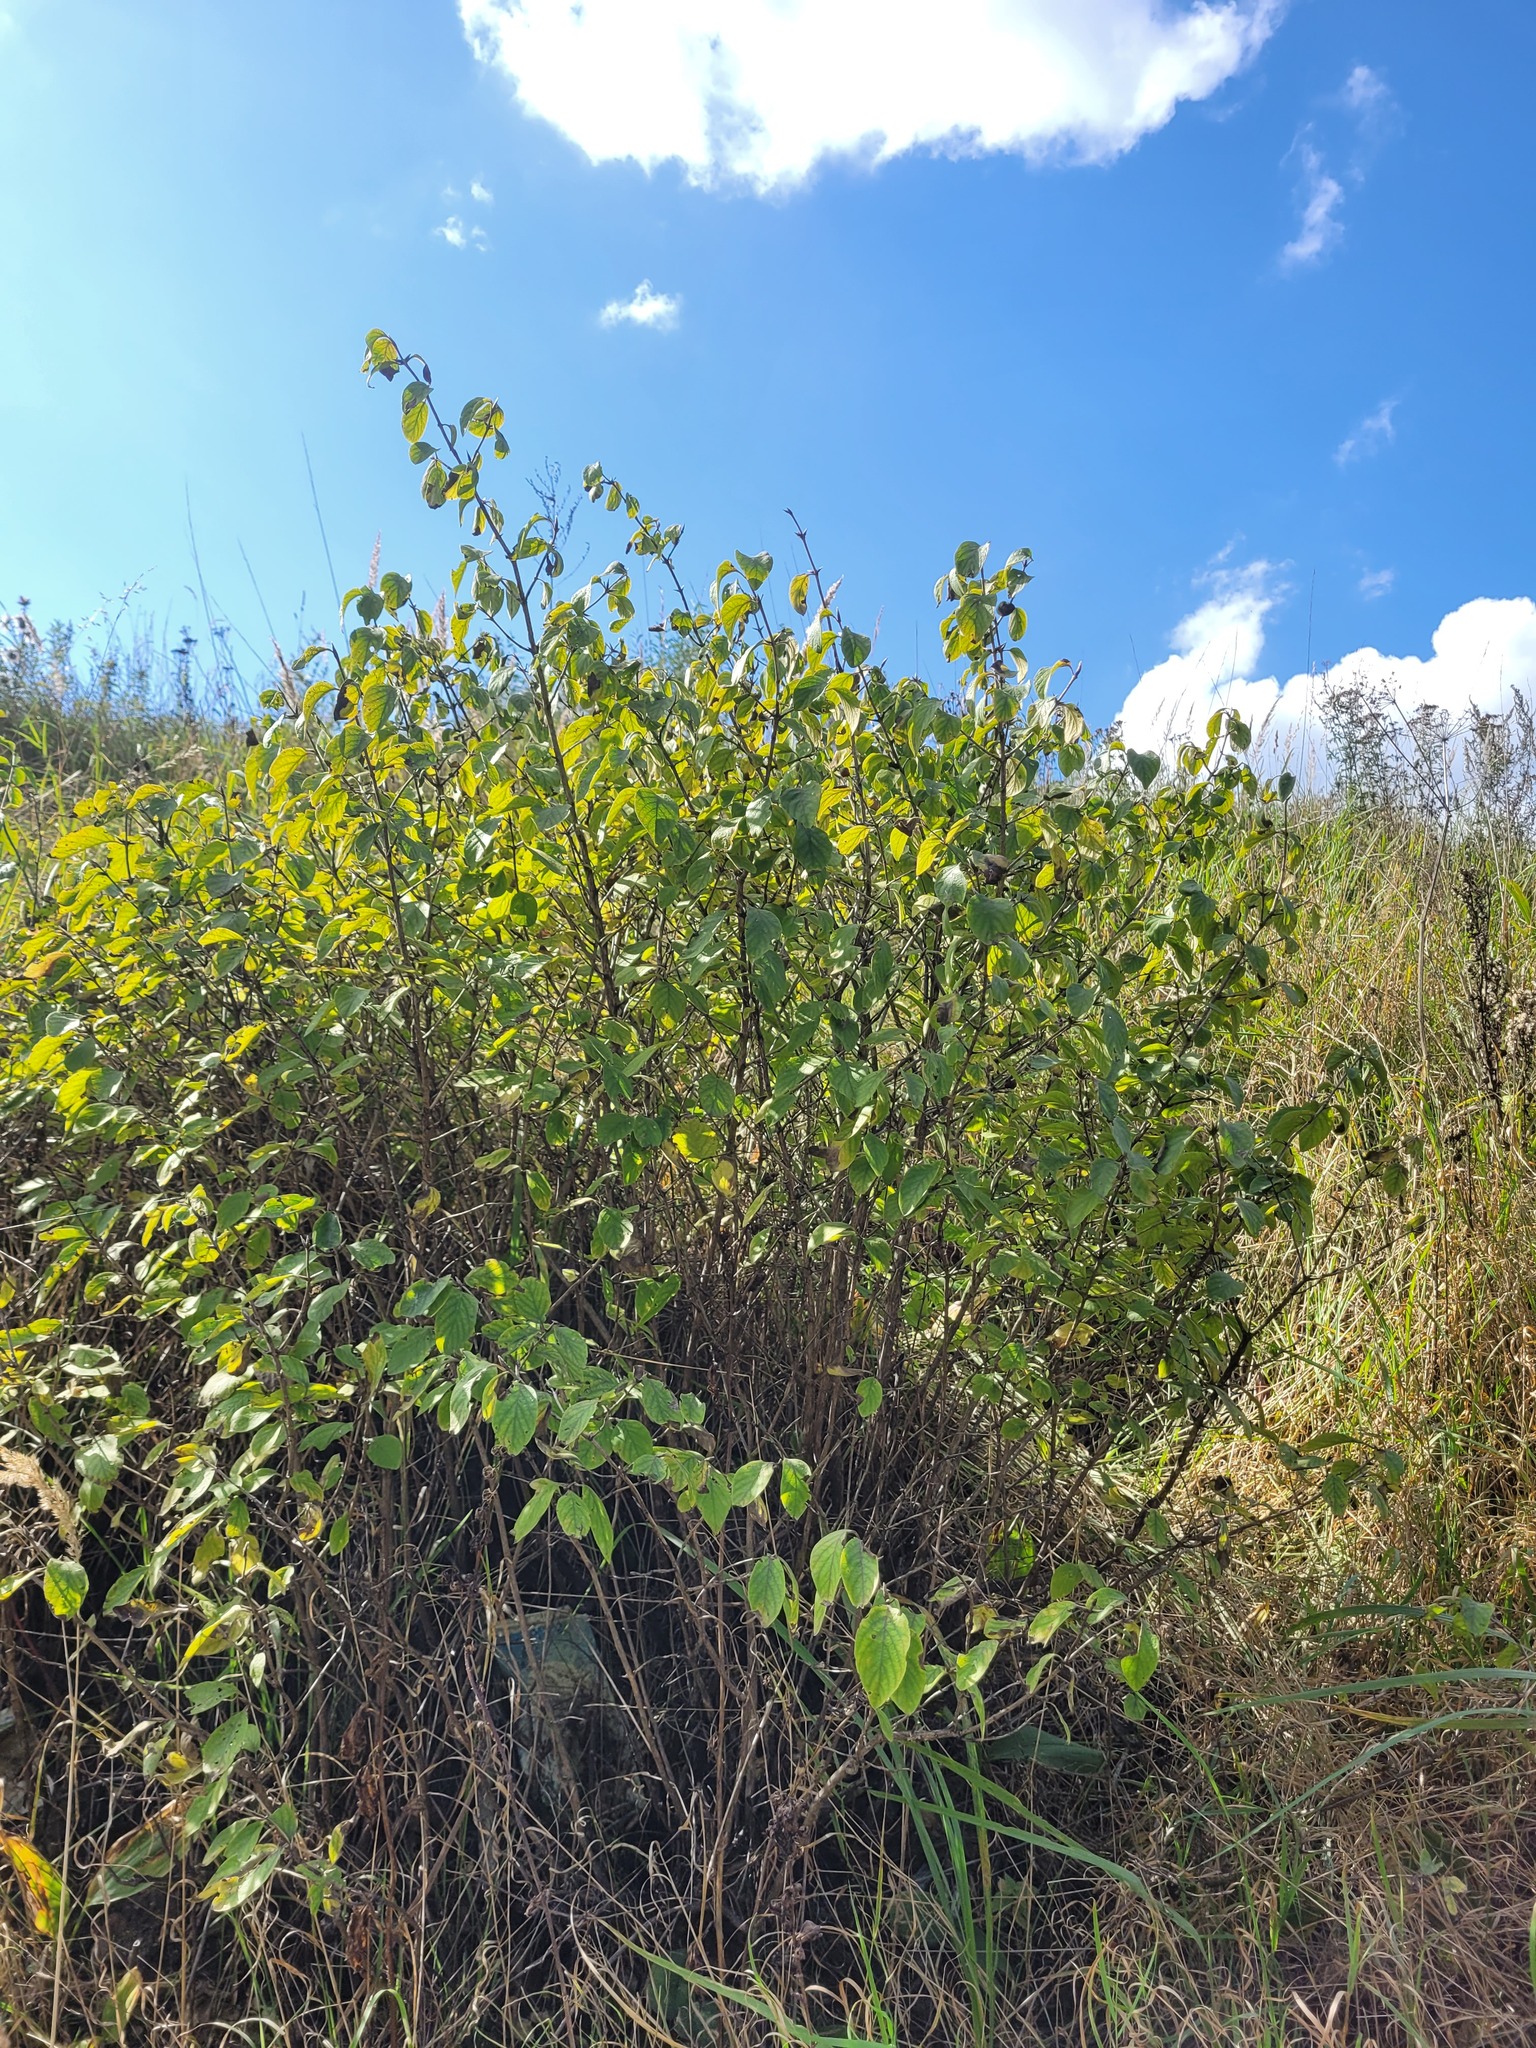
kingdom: Plantae
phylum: Tracheophyta
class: Magnoliopsida
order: Dipsacales
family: Caprifoliaceae
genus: Lonicera
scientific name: Lonicera xylosteum
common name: Fly honeysuckle
